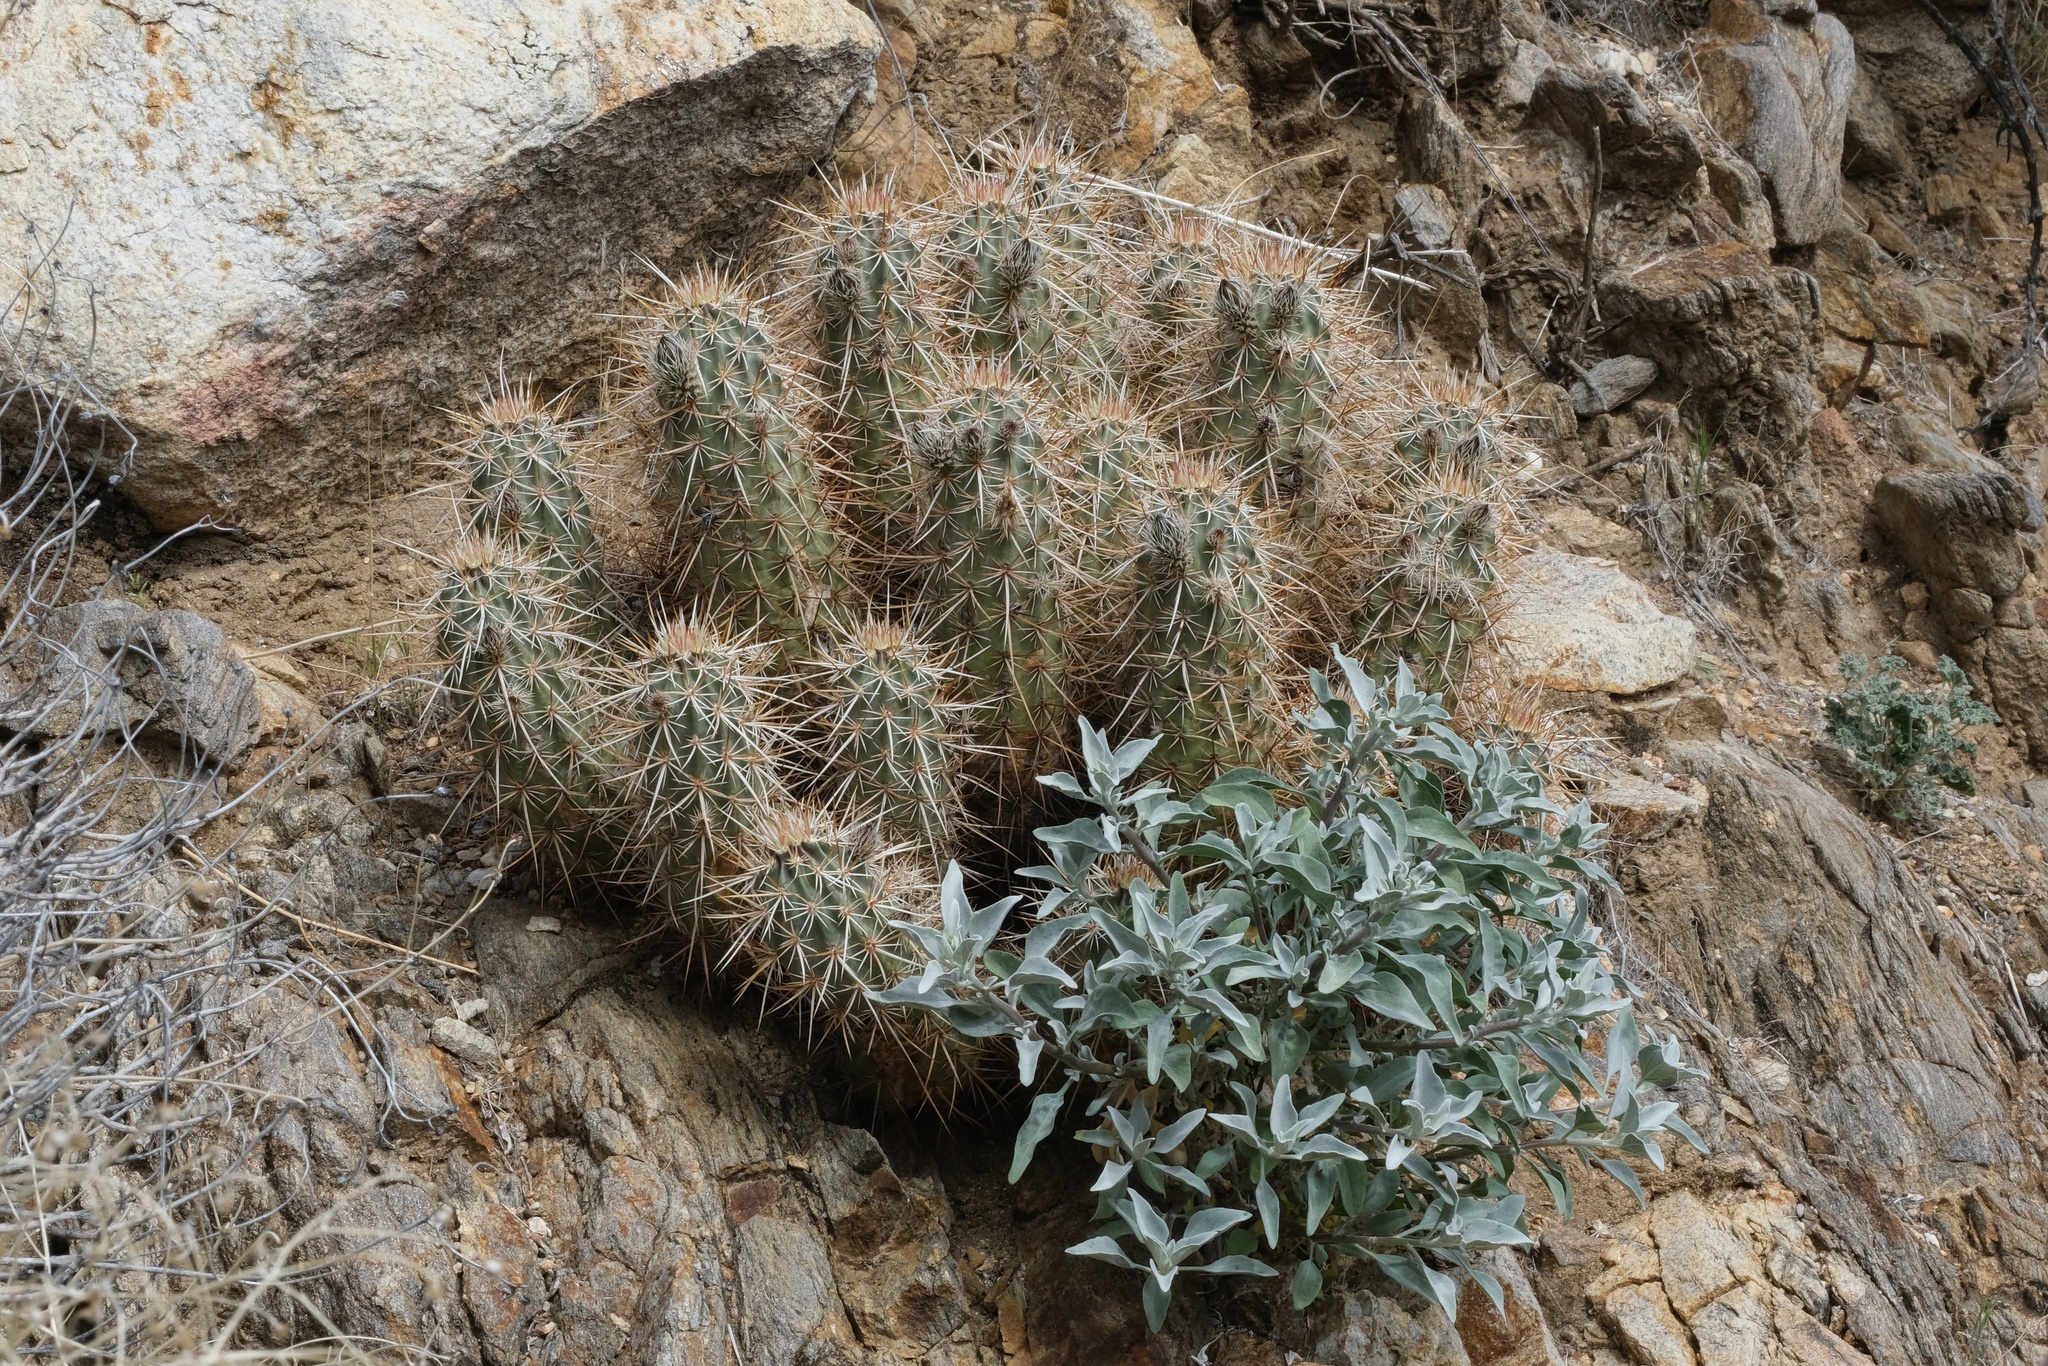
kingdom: Plantae
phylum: Tracheophyta
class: Magnoliopsida
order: Caryophyllales
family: Cactaceae
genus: Echinocereus
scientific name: Echinocereus engelmannii
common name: Engelmann's hedgehog cactus
